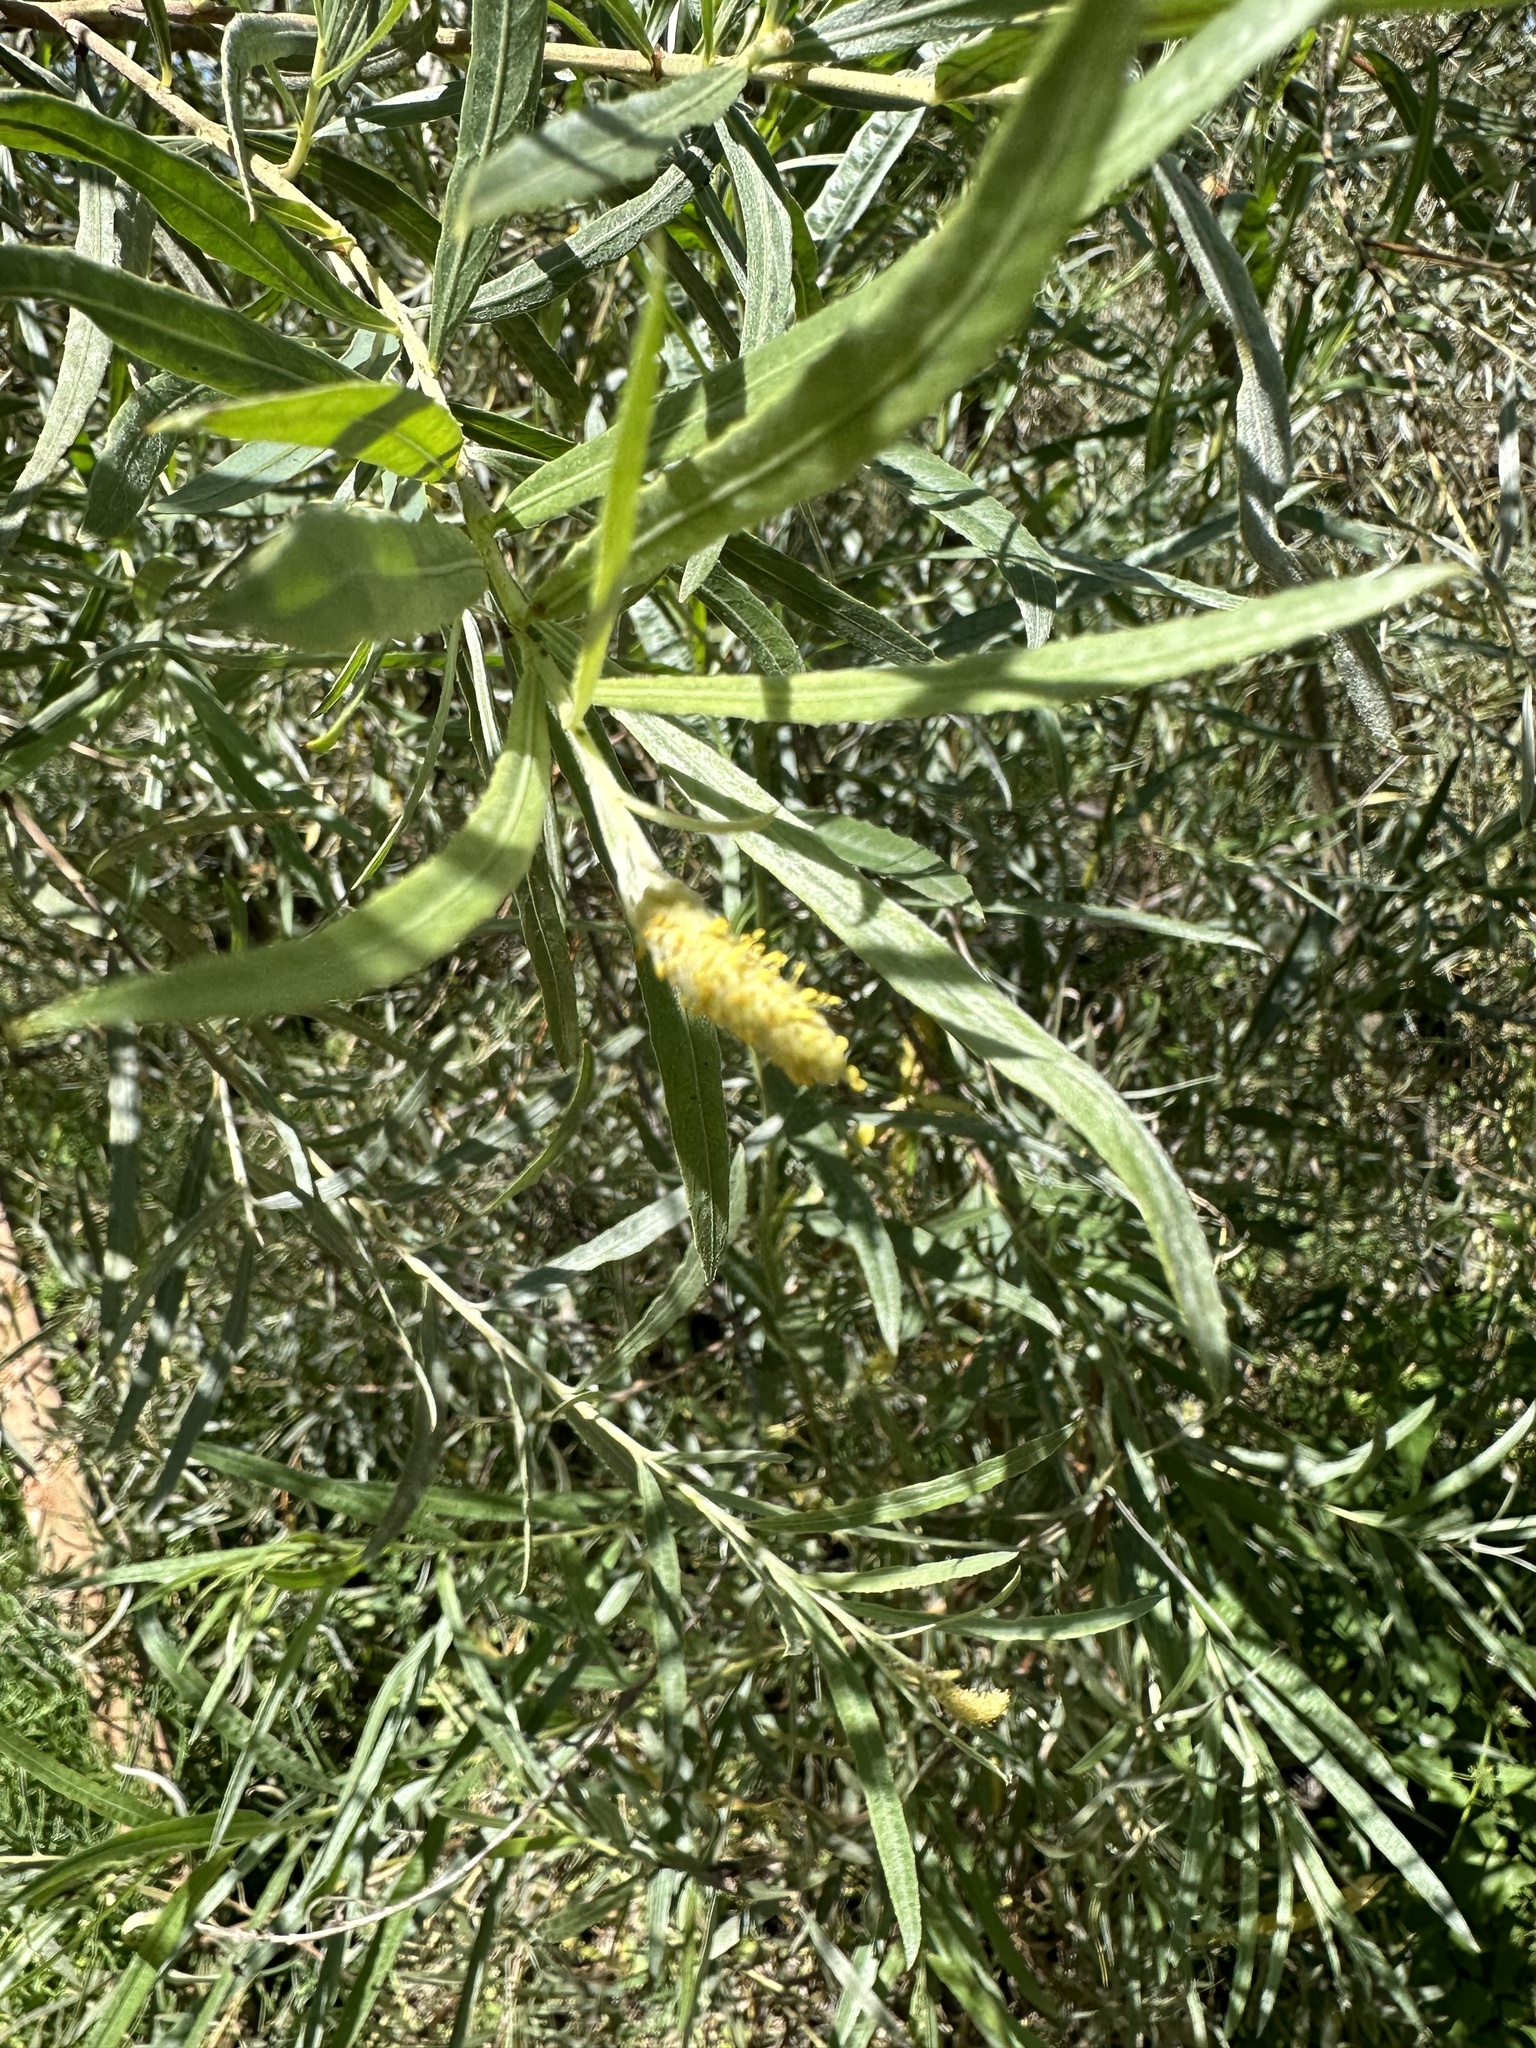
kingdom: Plantae
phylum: Tracheophyta
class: Magnoliopsida
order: Malpighiales
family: Salicaceae
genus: Salix
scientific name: Salix exigua
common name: Coyote willow
